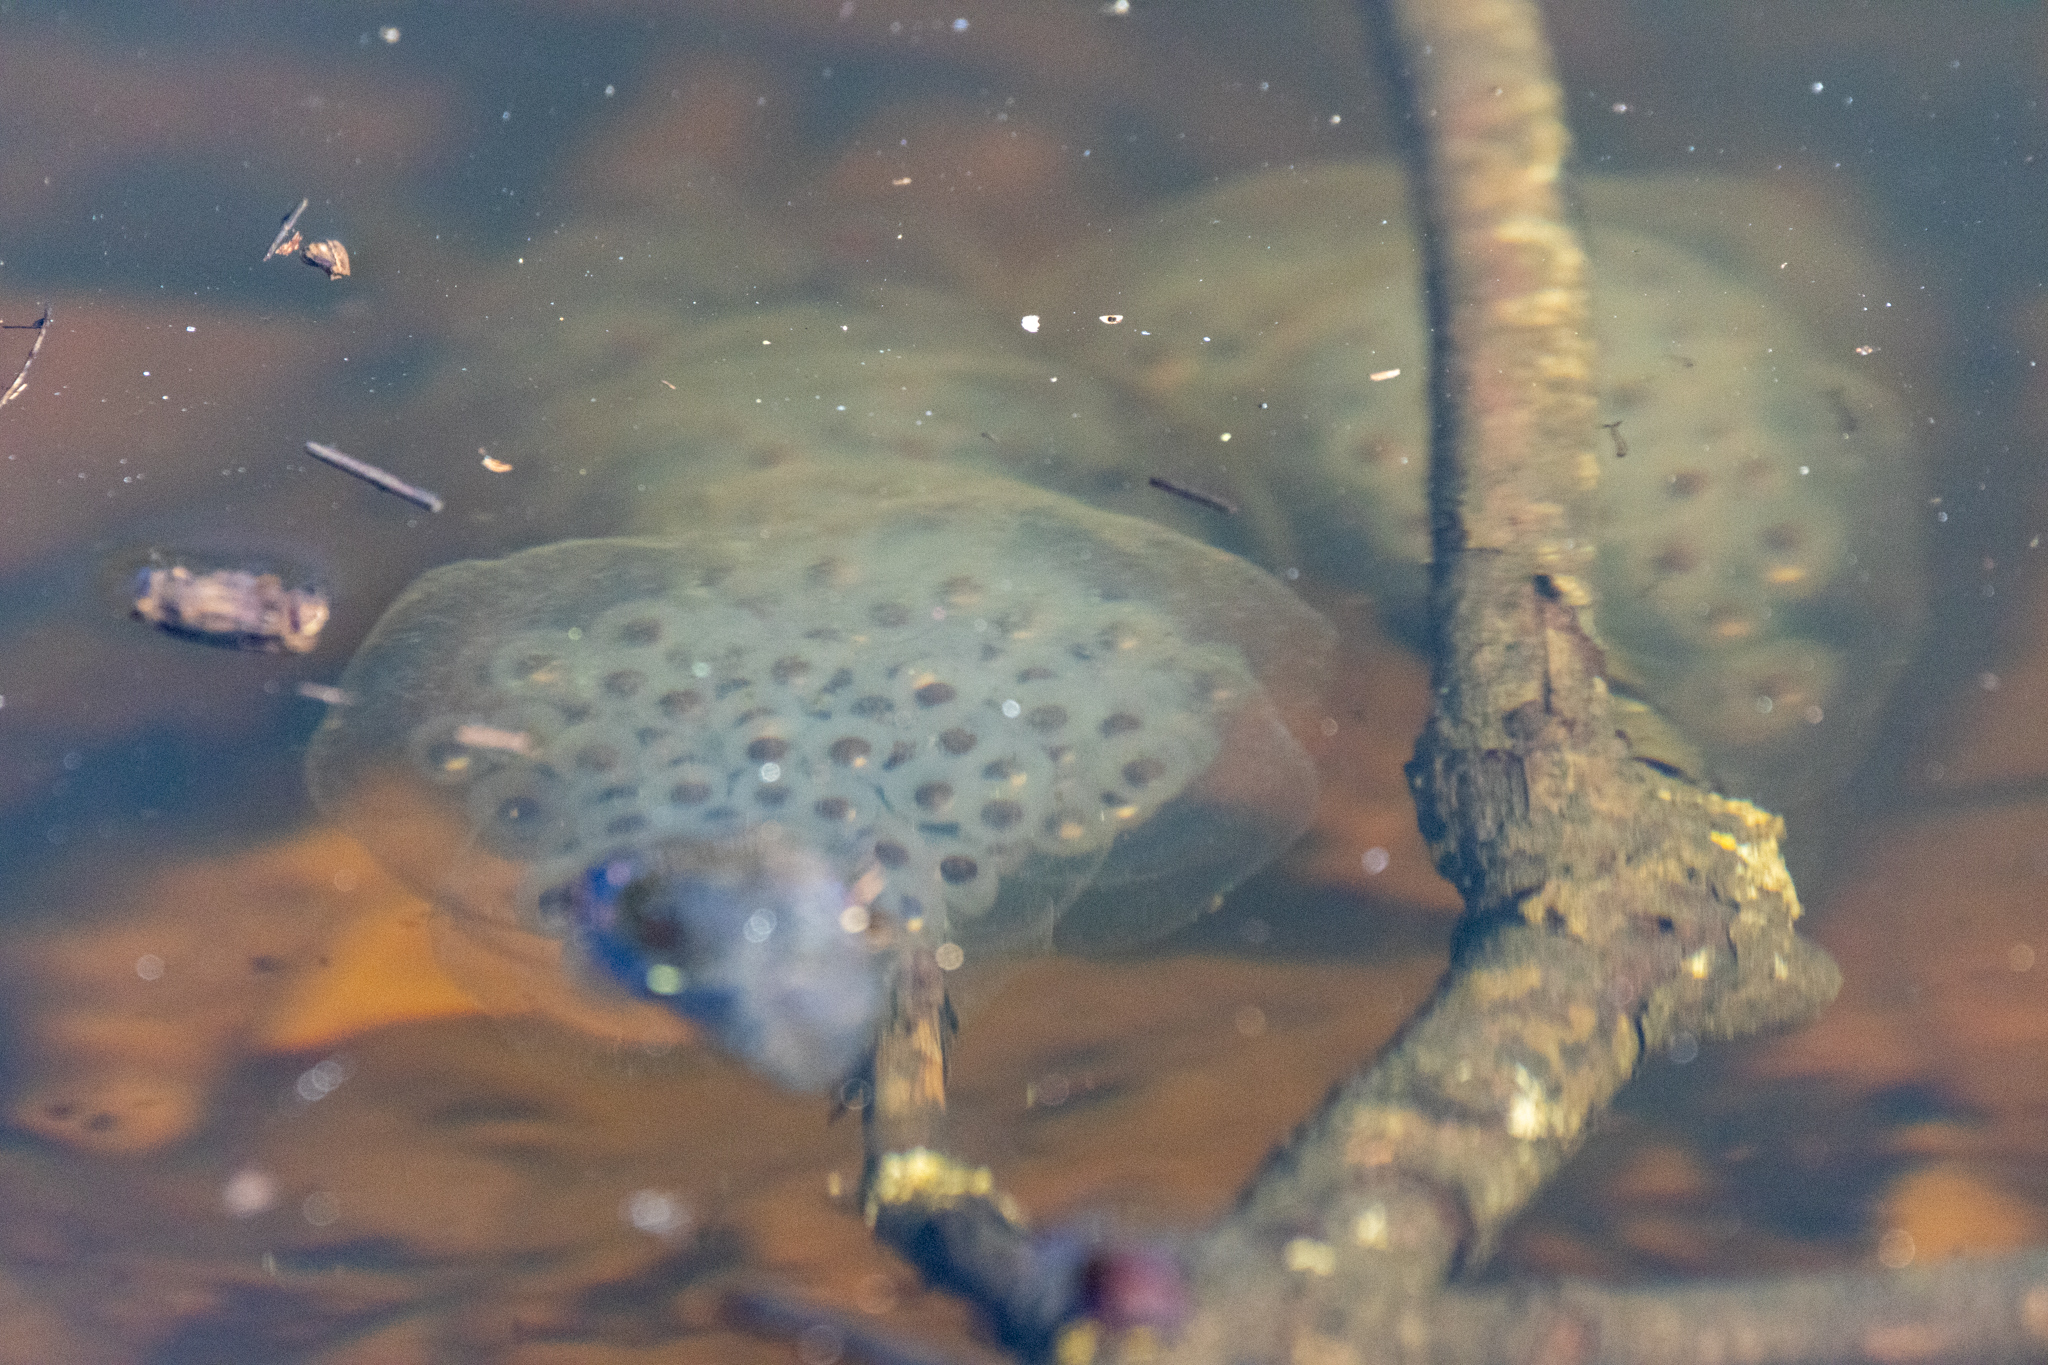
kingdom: Animalia
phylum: Chordata
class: Amphibia
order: Caudata
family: Ambystomatidae
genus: Ambystoma
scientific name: Ambystoma maculatum
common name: Spotted salamander
